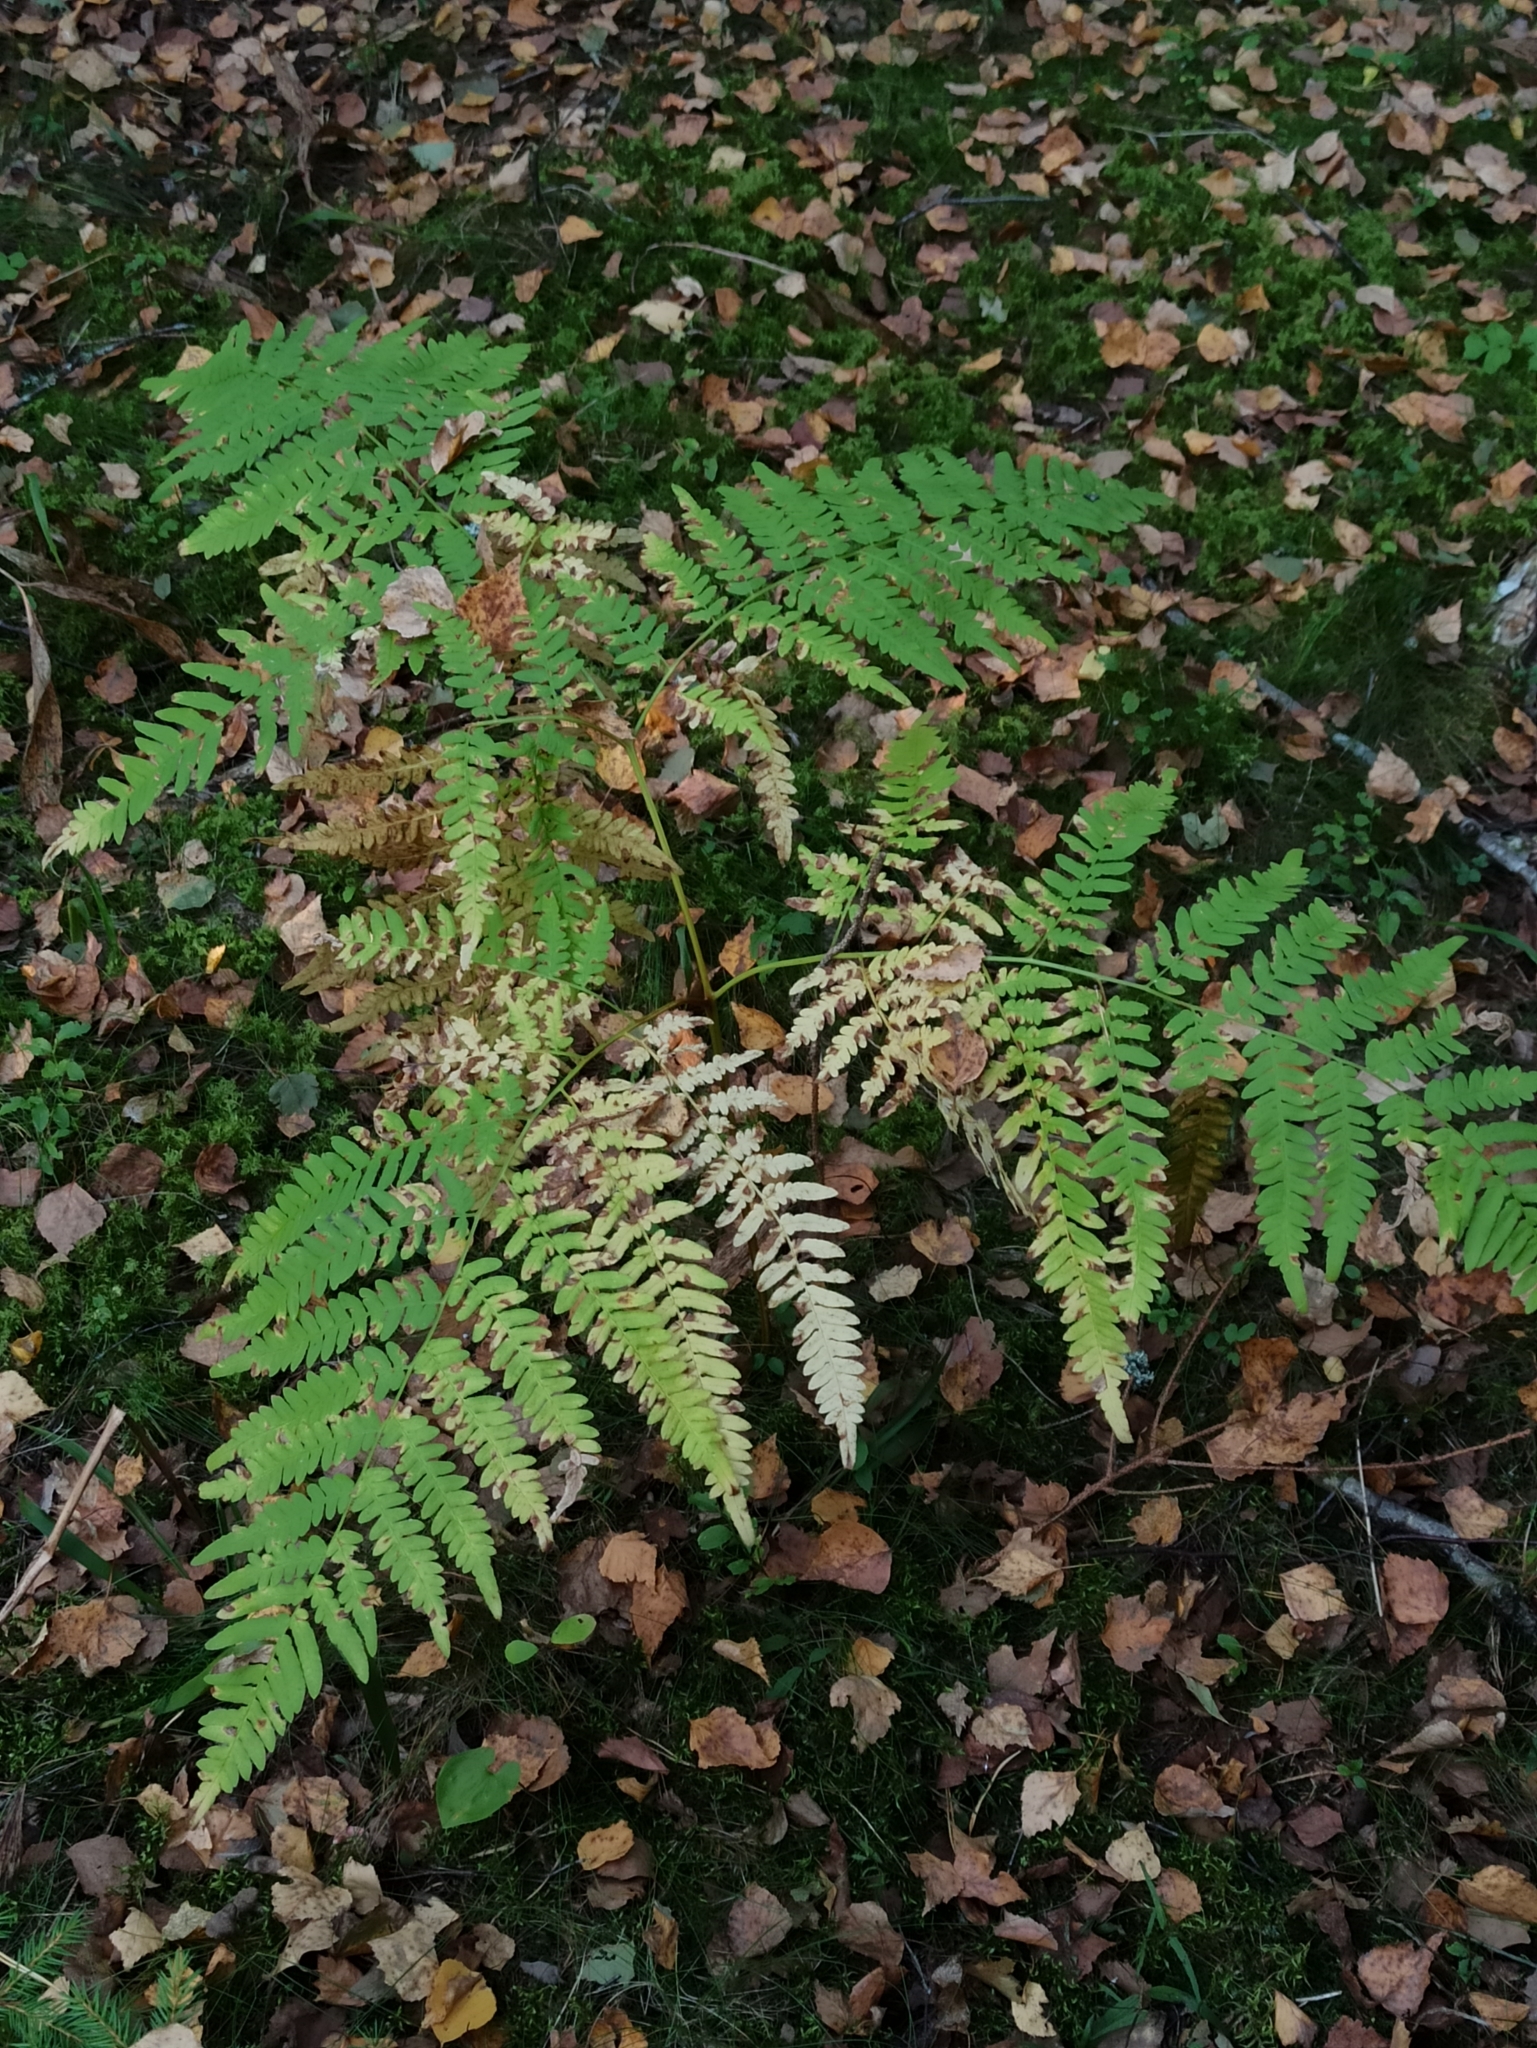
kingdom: Plantae
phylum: Tracheophyta
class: Polypodiopsida
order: Polypodiales
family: Dennstaedtiaceae
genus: Pteridium
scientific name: Pteridium aquilinum
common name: Bracken
